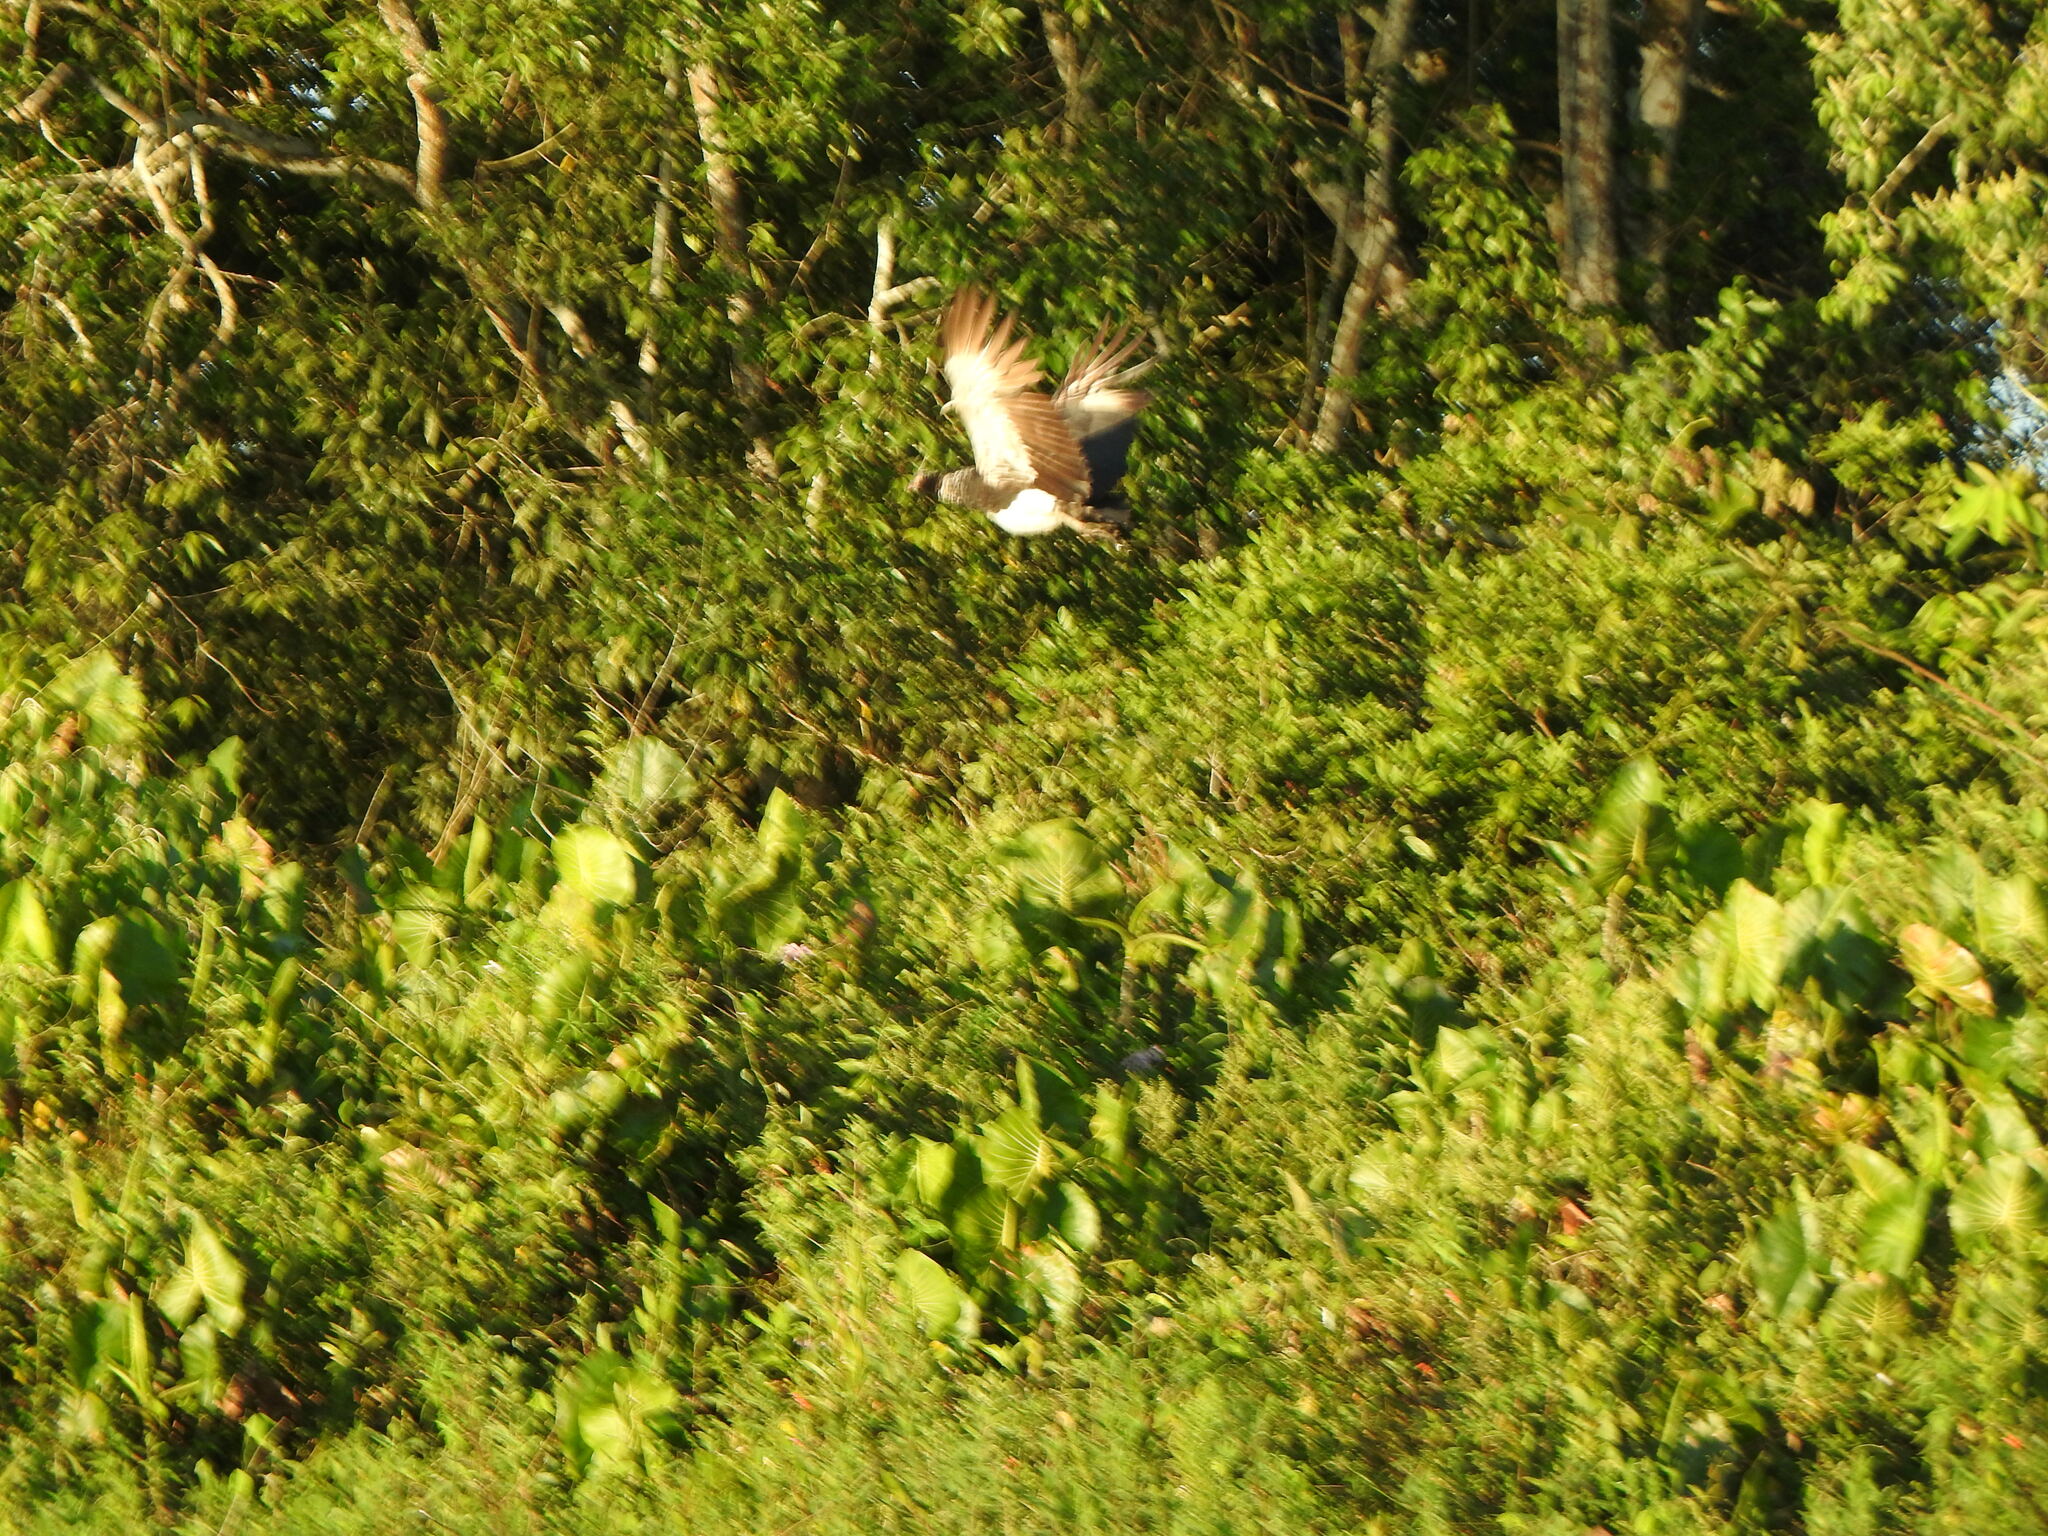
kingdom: Animalia
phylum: Chordata
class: Aves
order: Anseriformes
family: Anhimidae
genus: Anhima
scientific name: Anhima cornuta
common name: Horned screamer
